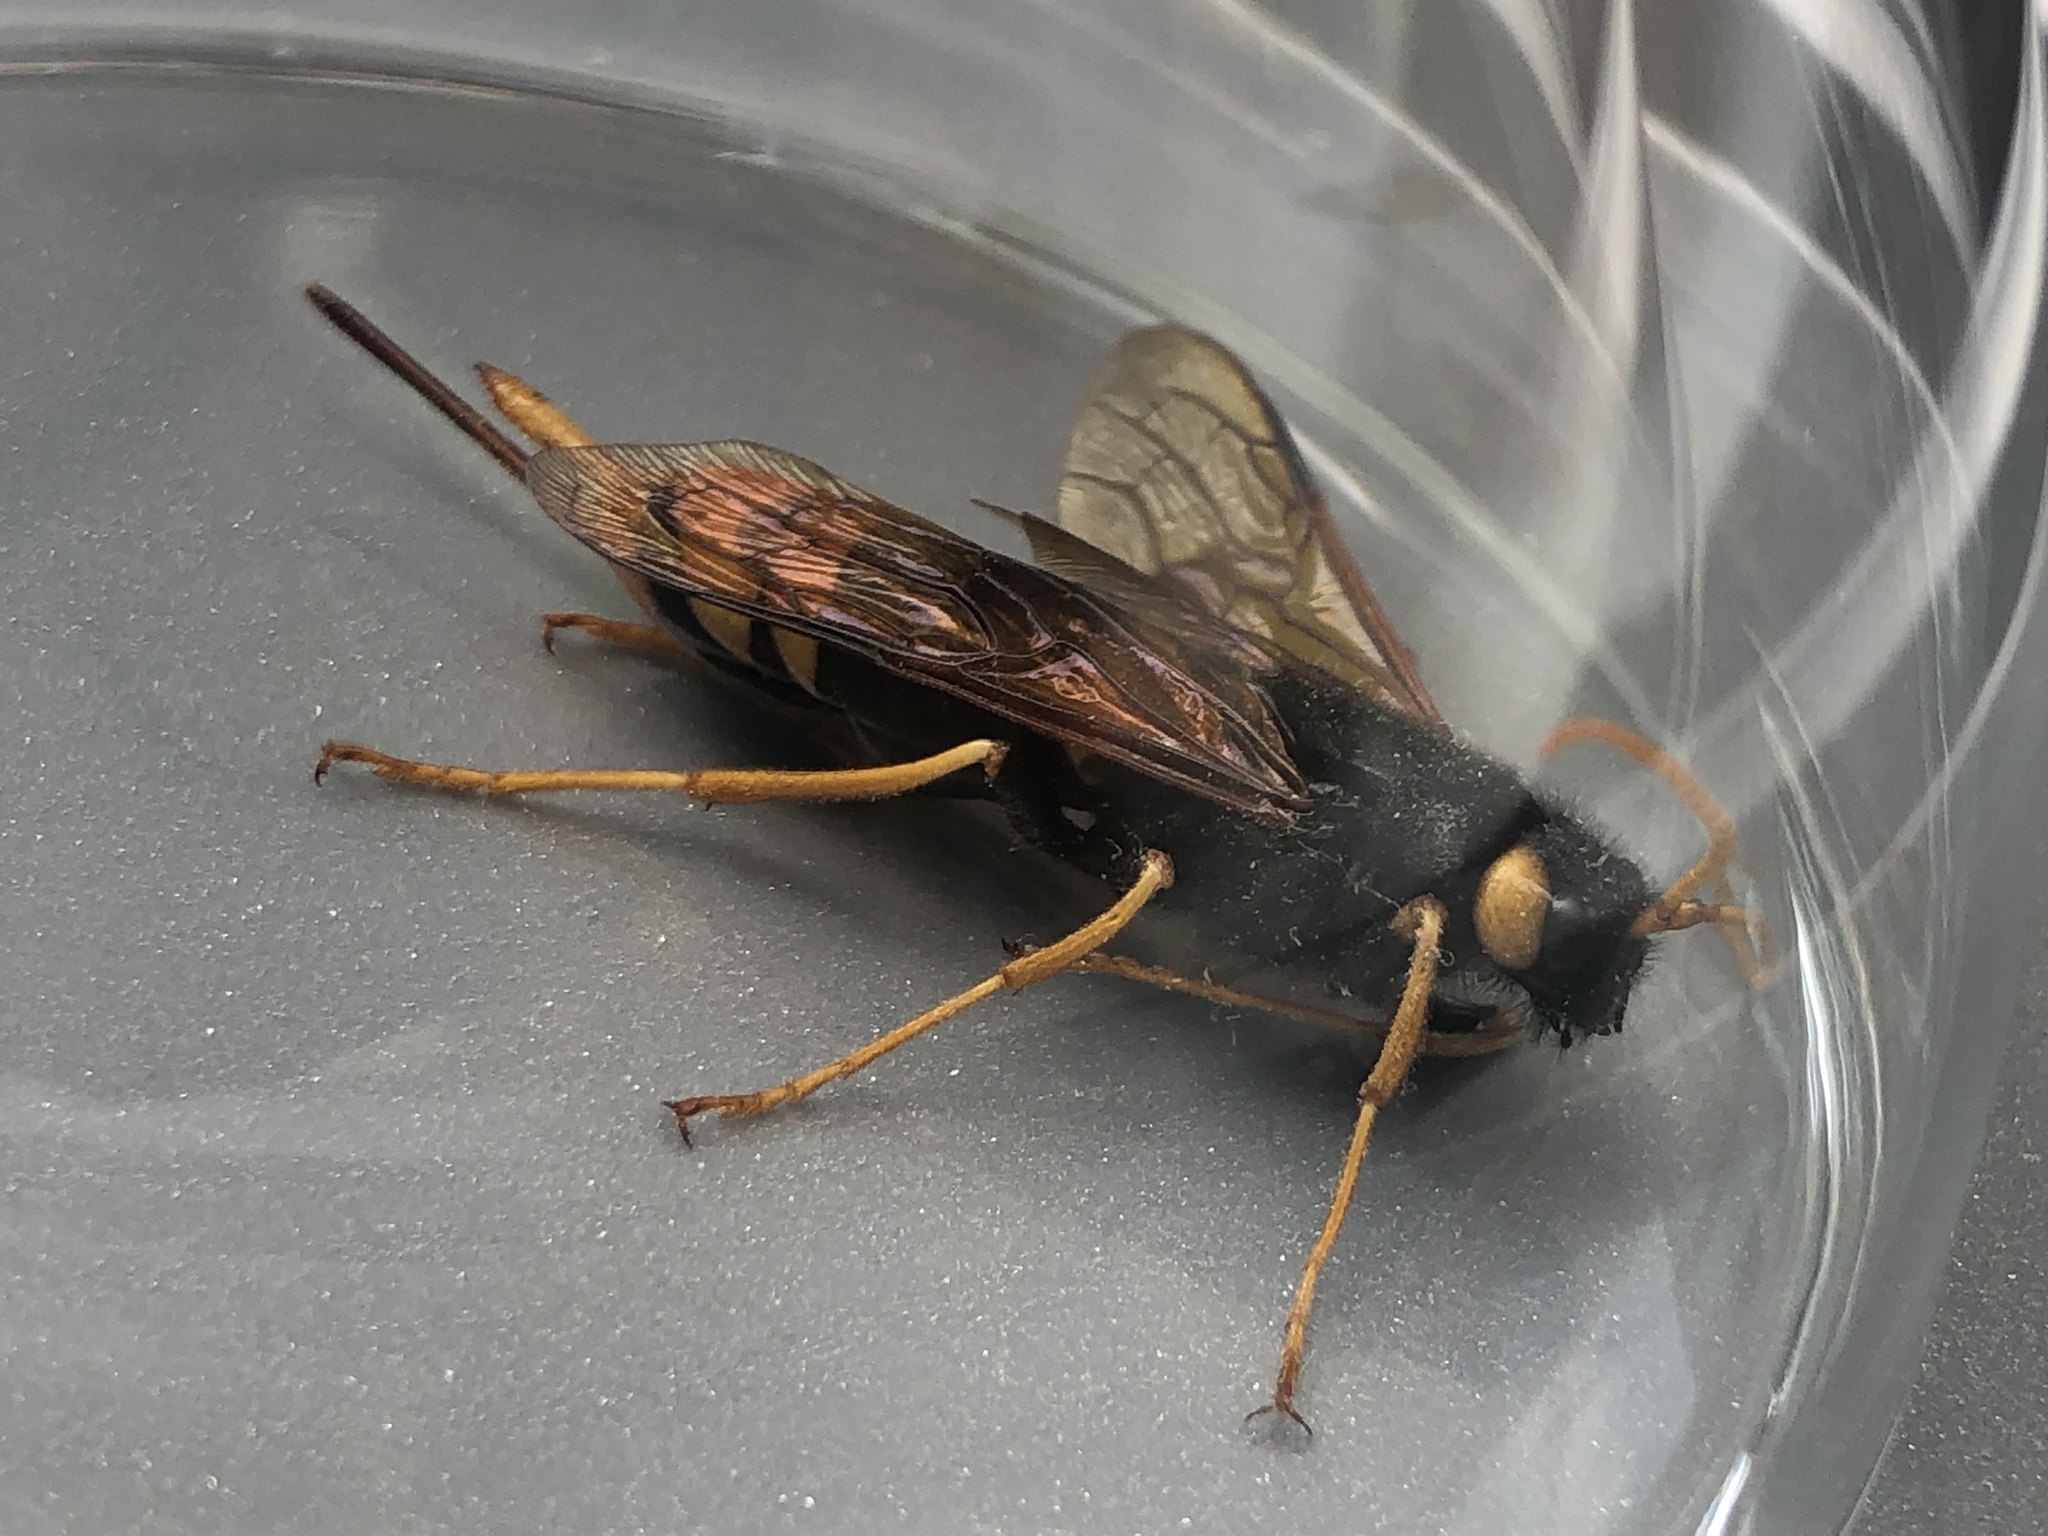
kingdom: Animalia
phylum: Arthropoda
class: Insecta
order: Hymenoptera
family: Siricidae
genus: Urocerus
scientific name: Urocerus gigas
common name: Giant woodwasp
